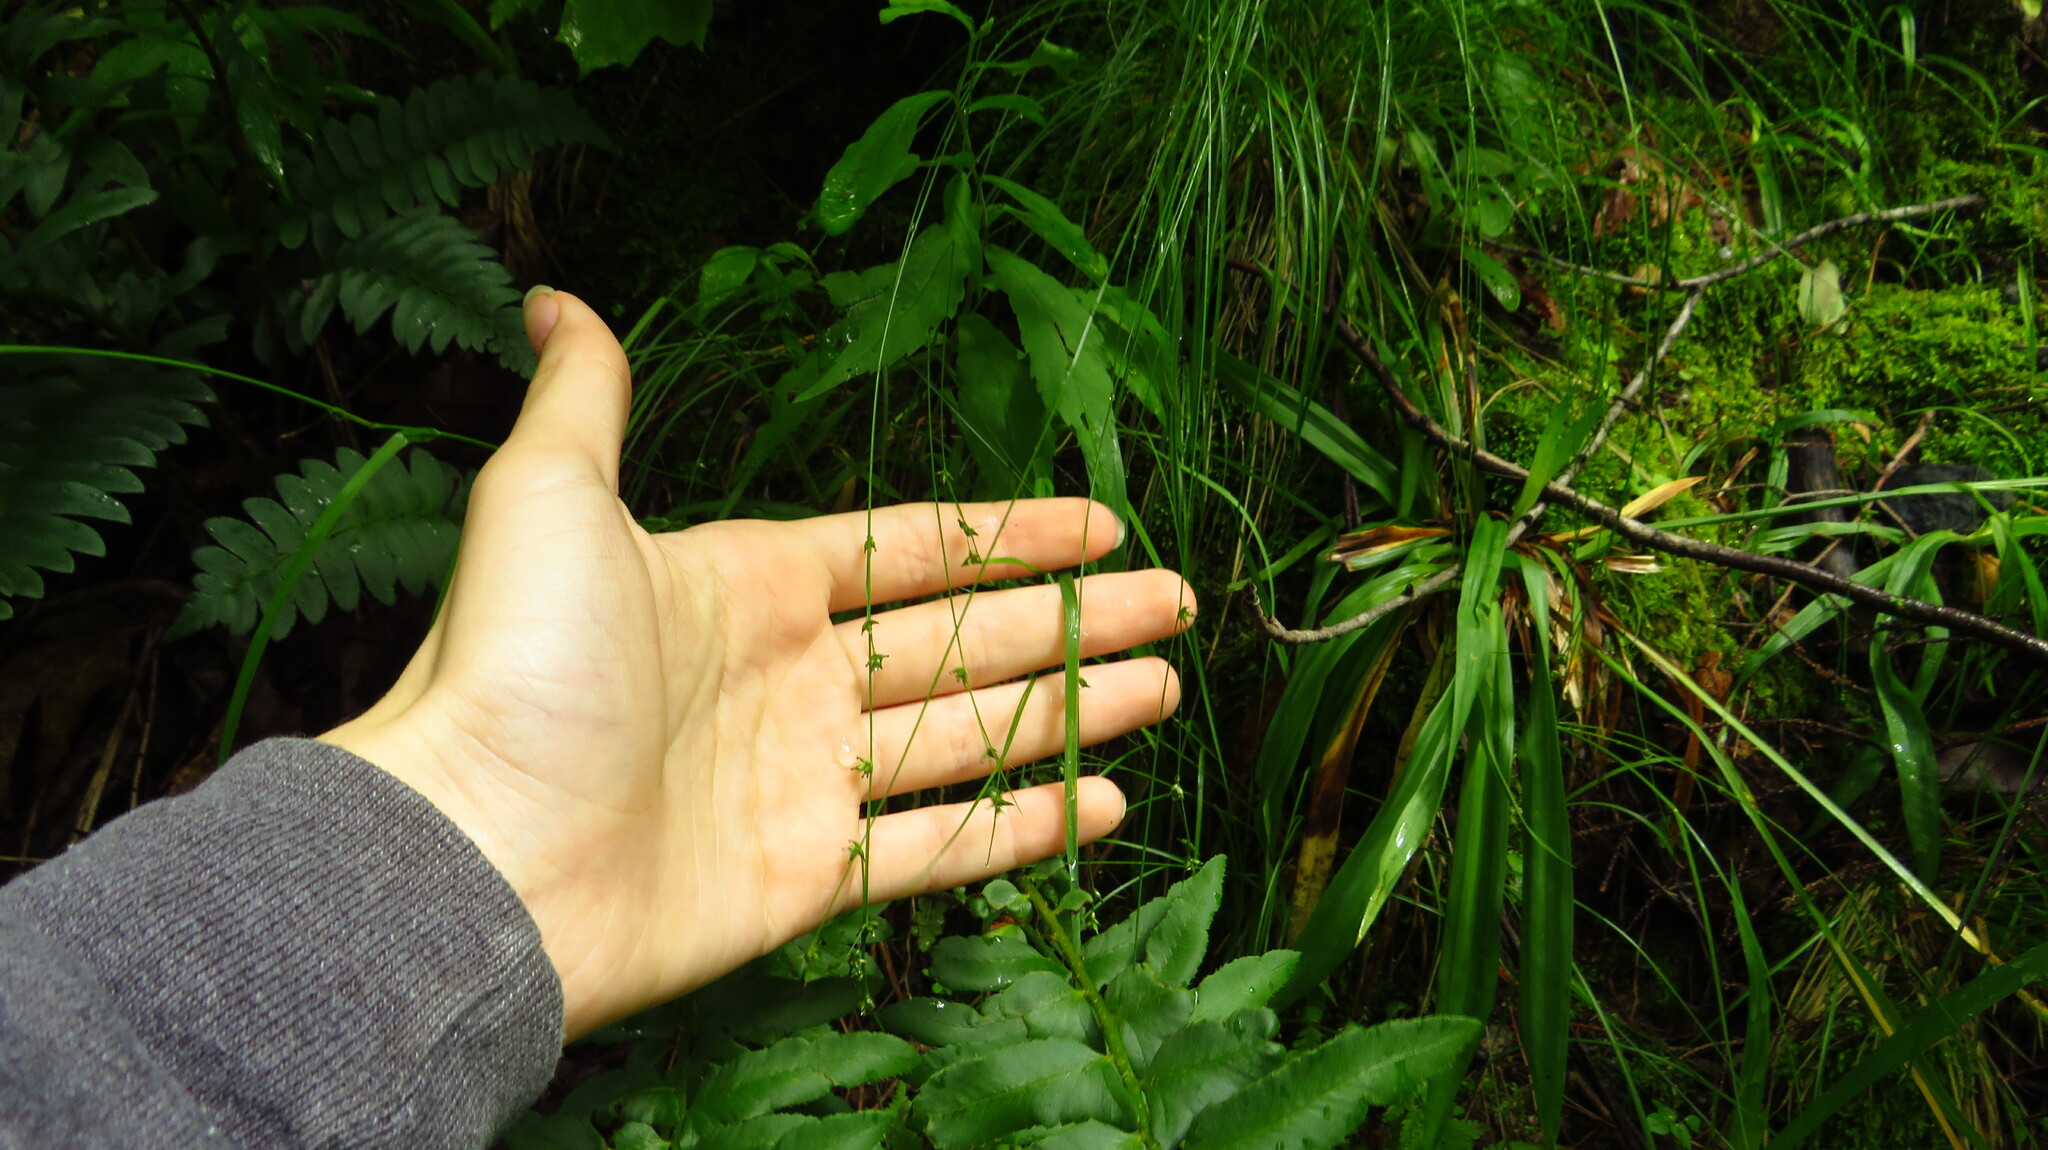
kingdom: Plantae
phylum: Tracheophyta
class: Liliopsida
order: Poales
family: Cyperaceae
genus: Carex
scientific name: Carex appalachica
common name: Appalachian sedge
